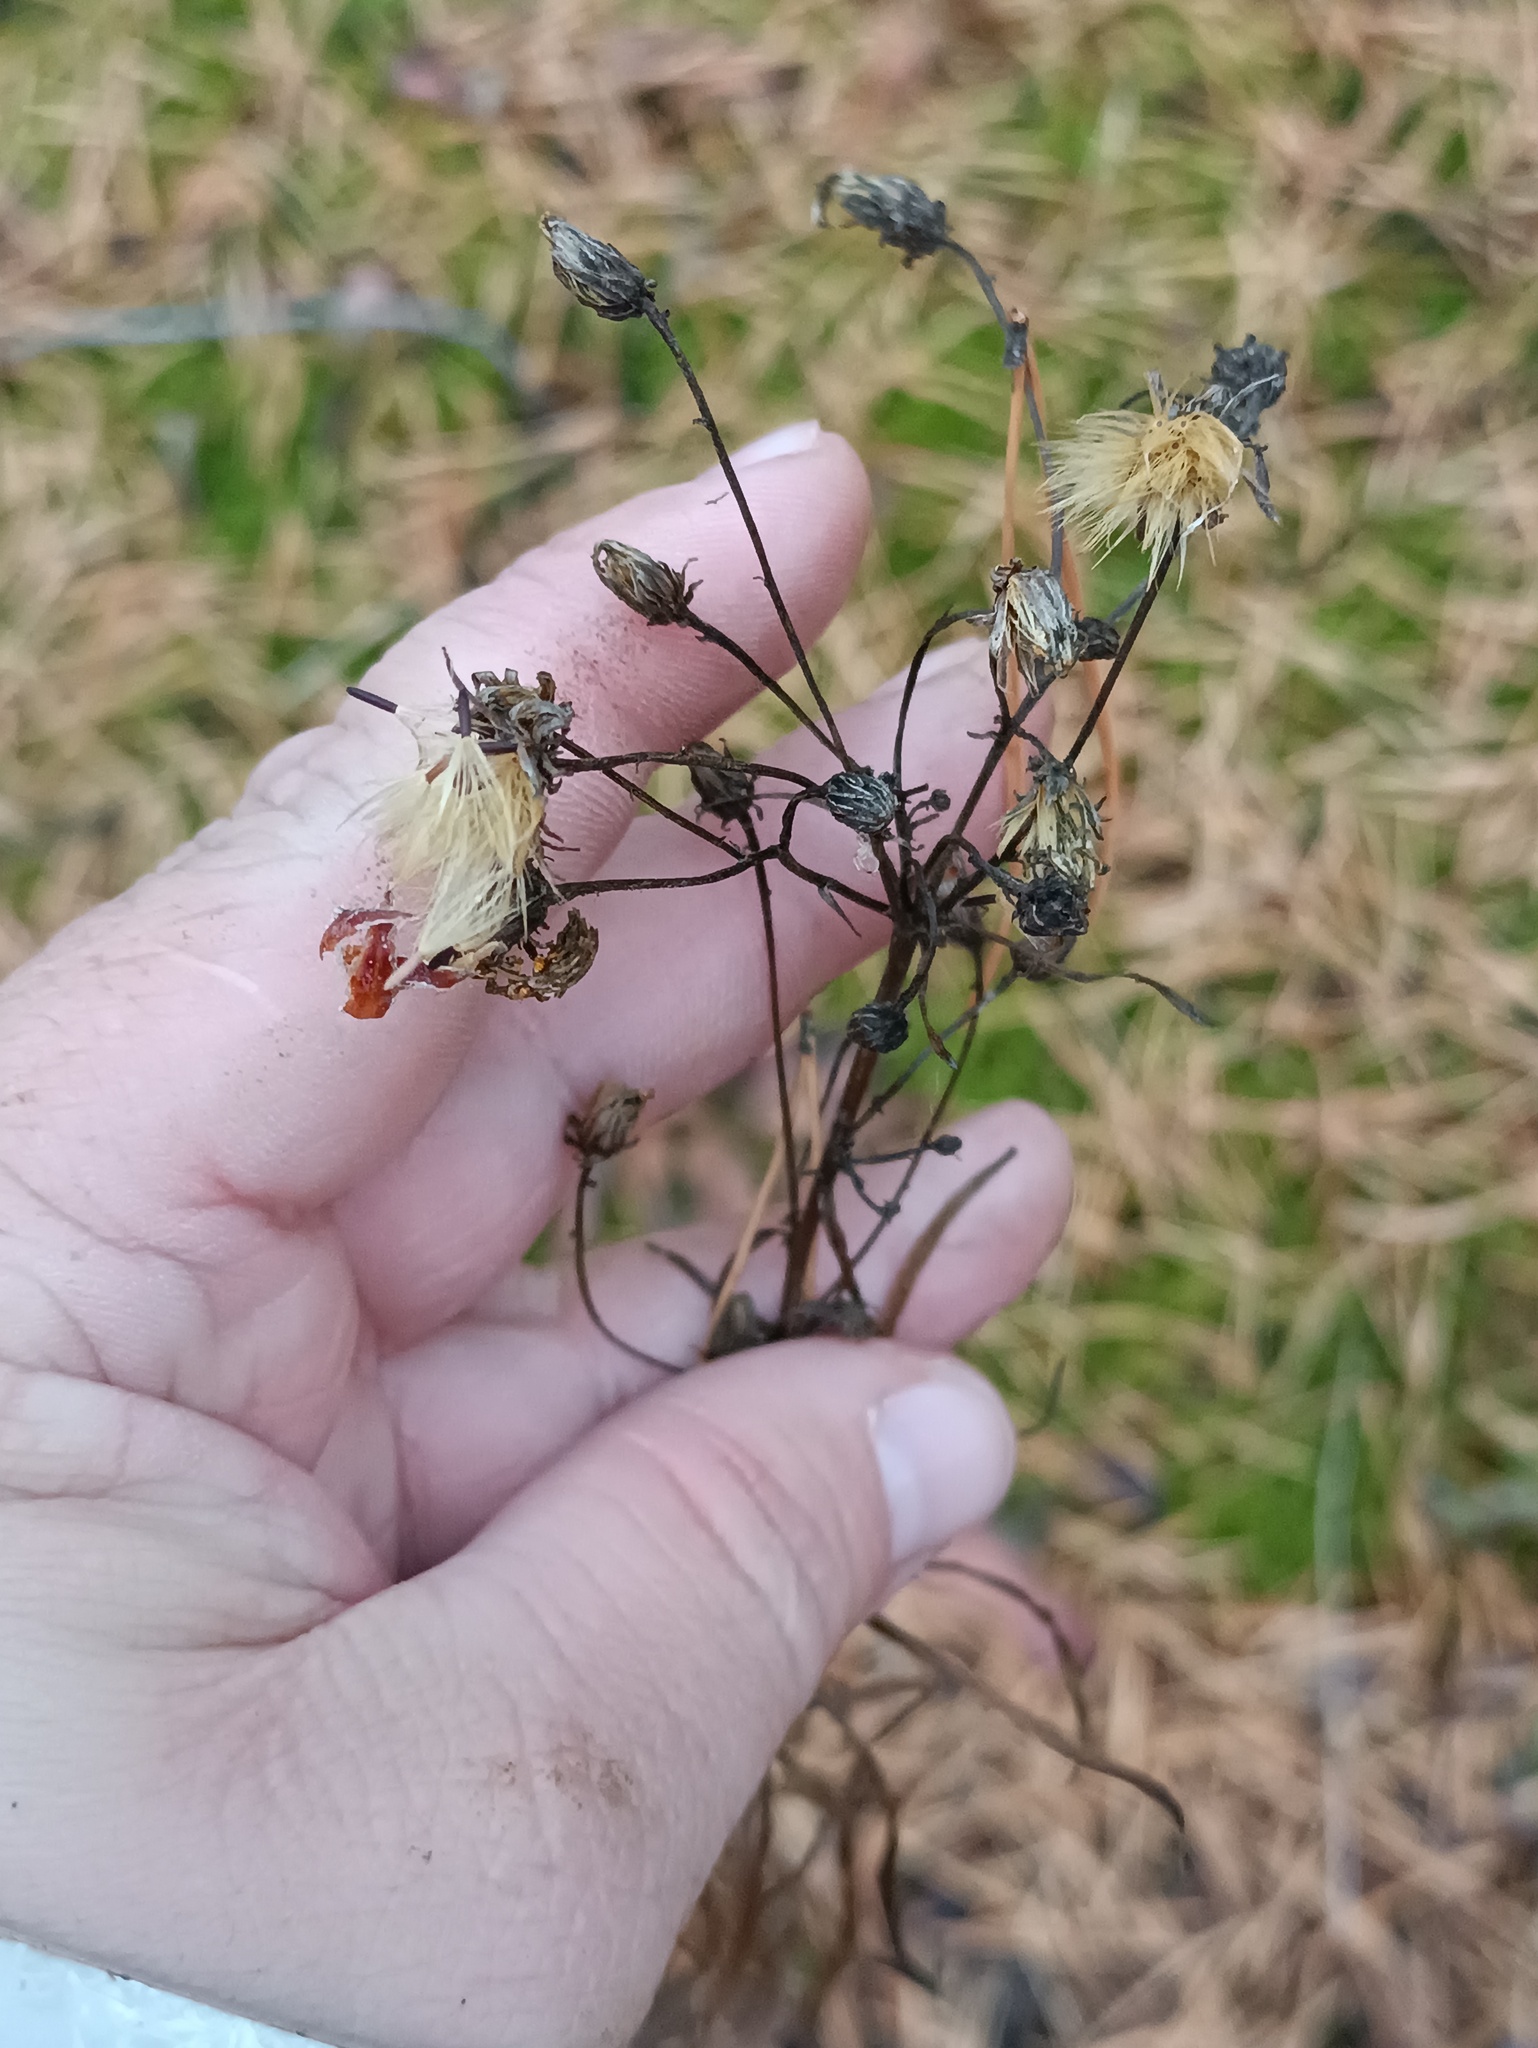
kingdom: Plantae
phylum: Tracheophyta
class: Magnoliopsida
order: Asterales
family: Asteraceae
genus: Hieracium
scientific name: Hieracium umbellatum
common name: Northern hawkweed
